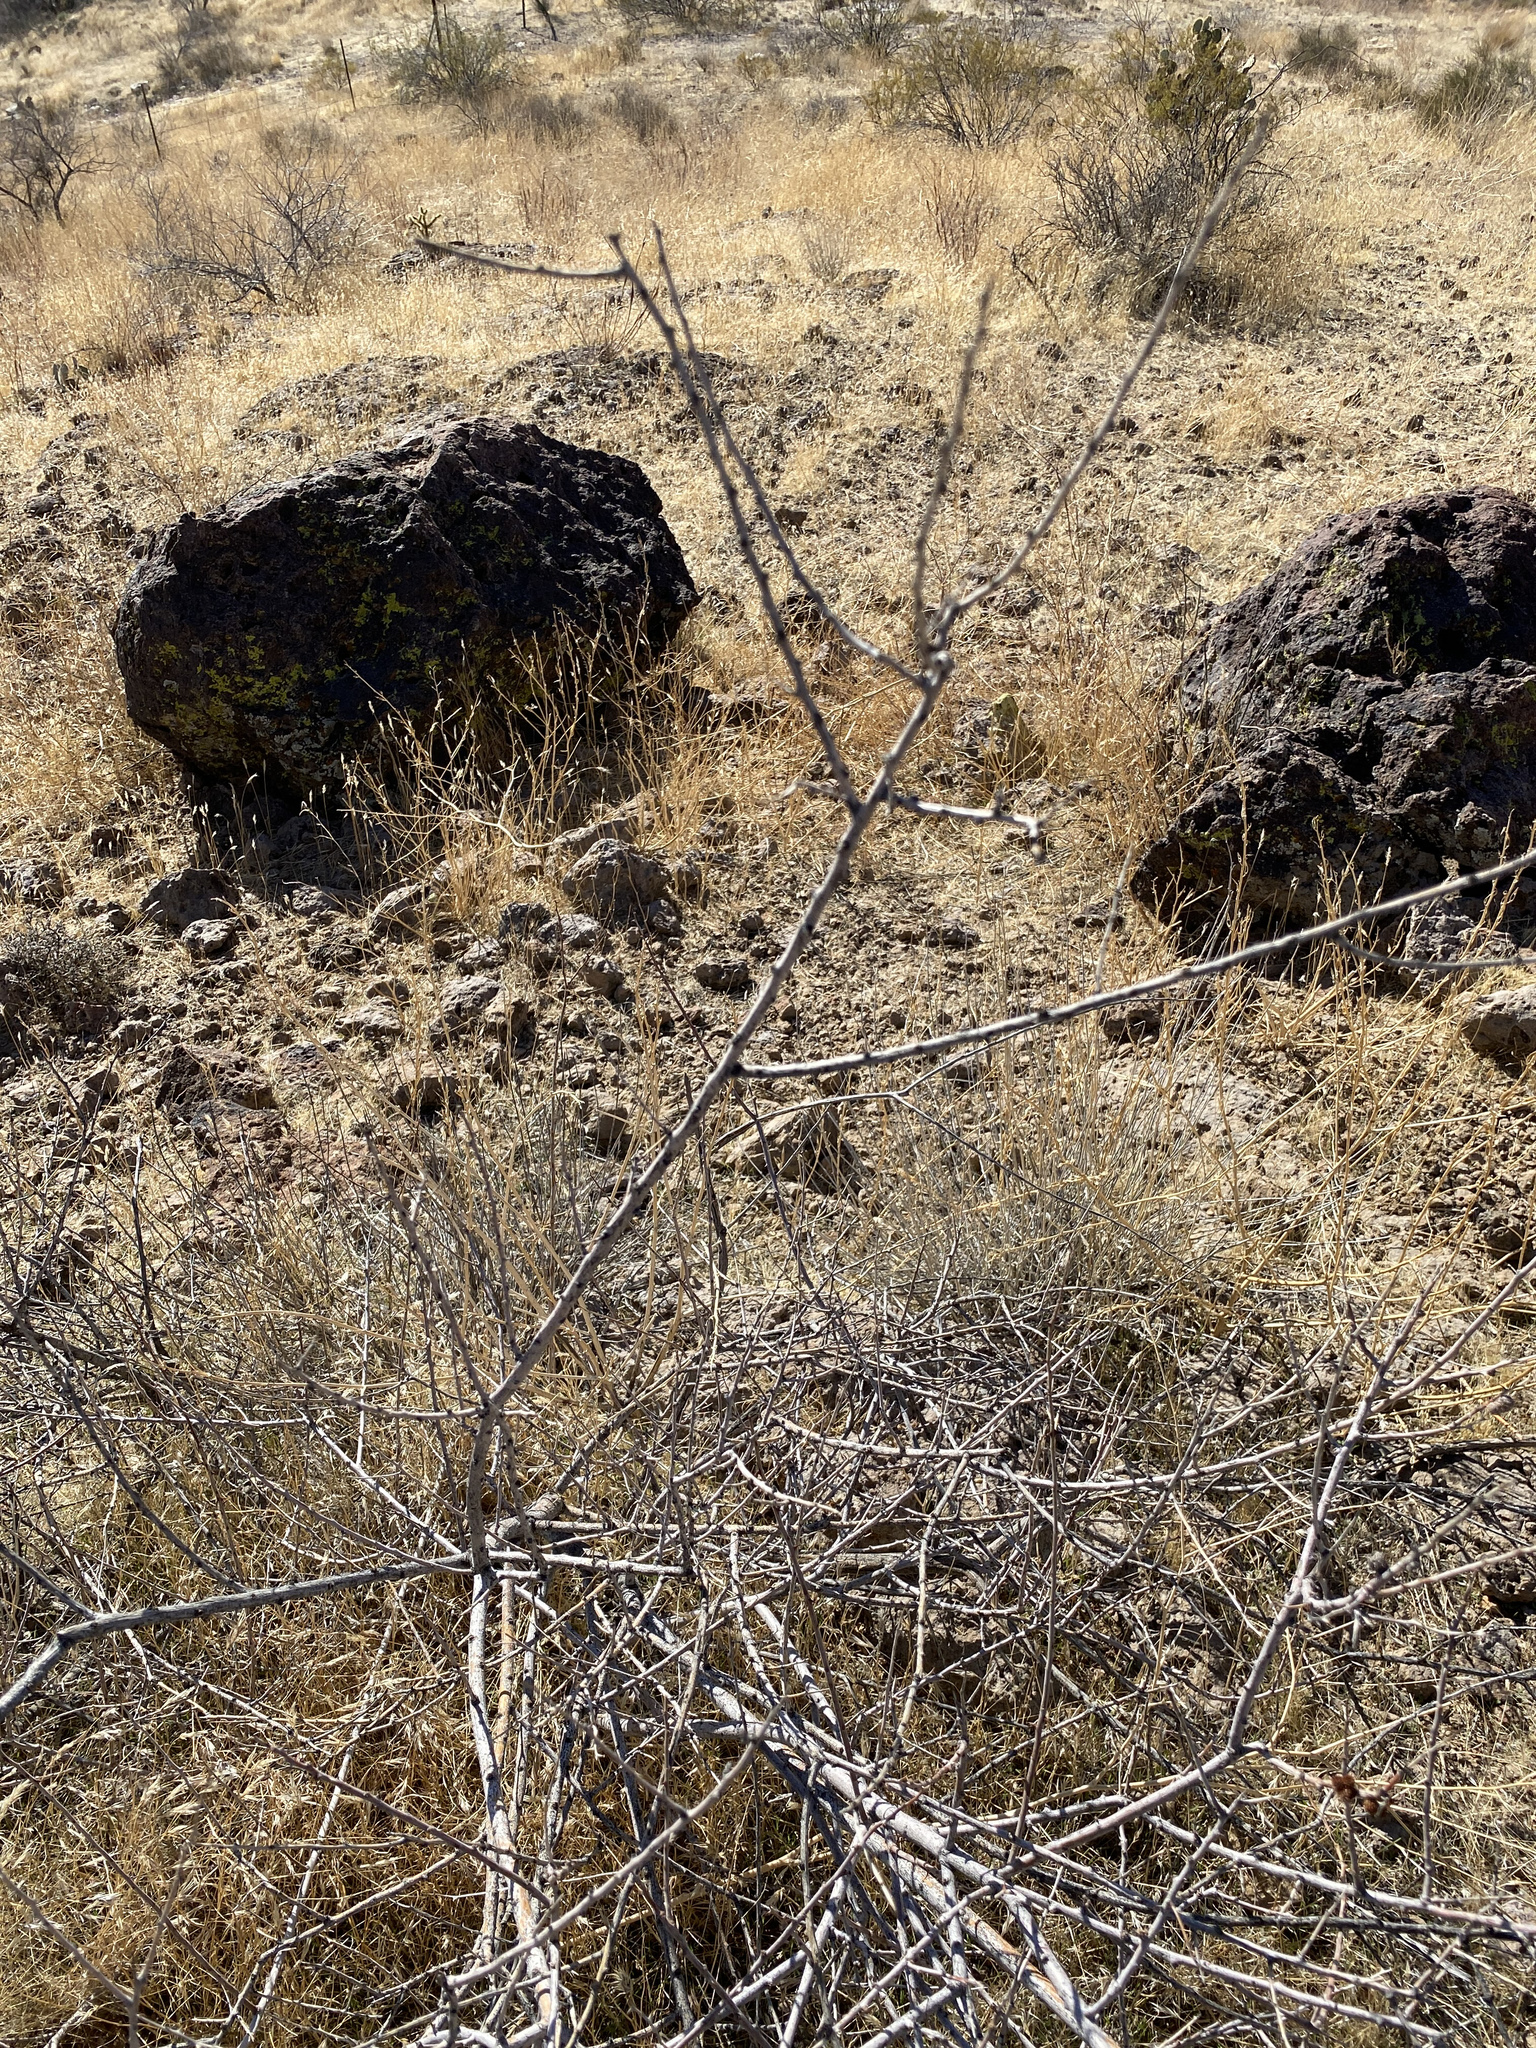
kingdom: Plantae
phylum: Tracheophyta
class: Magnoliopsida
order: Fabales
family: Fabaceae
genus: Senegalia
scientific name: Senegalia greggii
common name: Texas-mimosa
